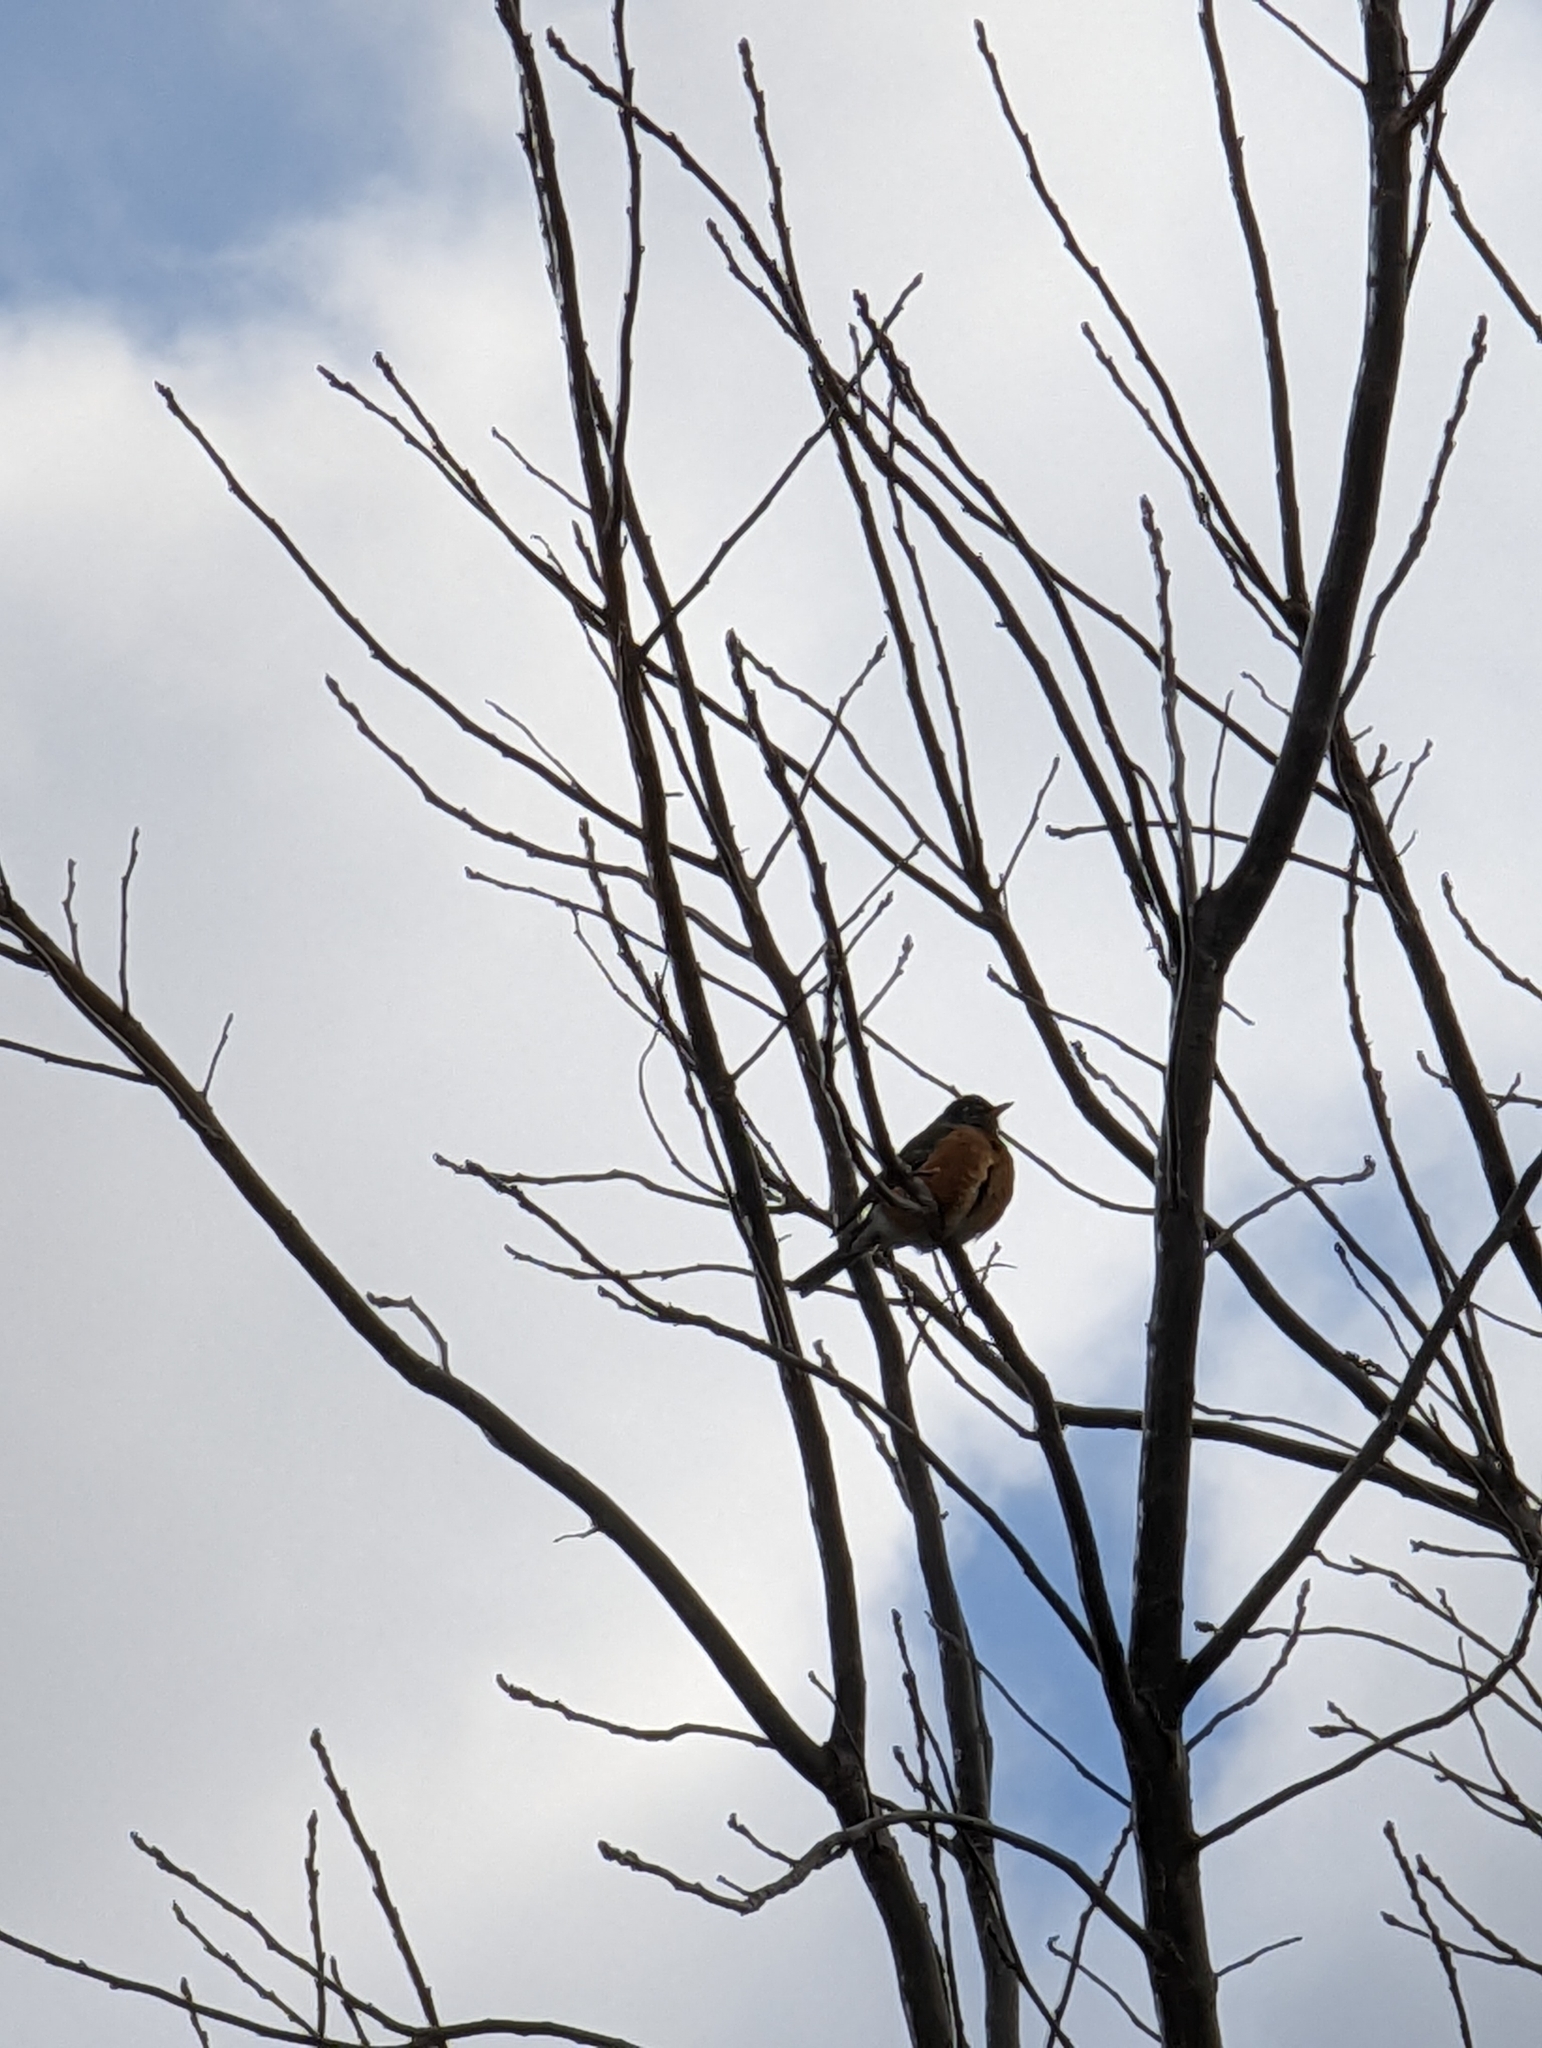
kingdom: Animalia
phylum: Chordata
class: Aves
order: Passeriformes
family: Turdidae
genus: Turdus
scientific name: Turdus migratorius
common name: American robin
